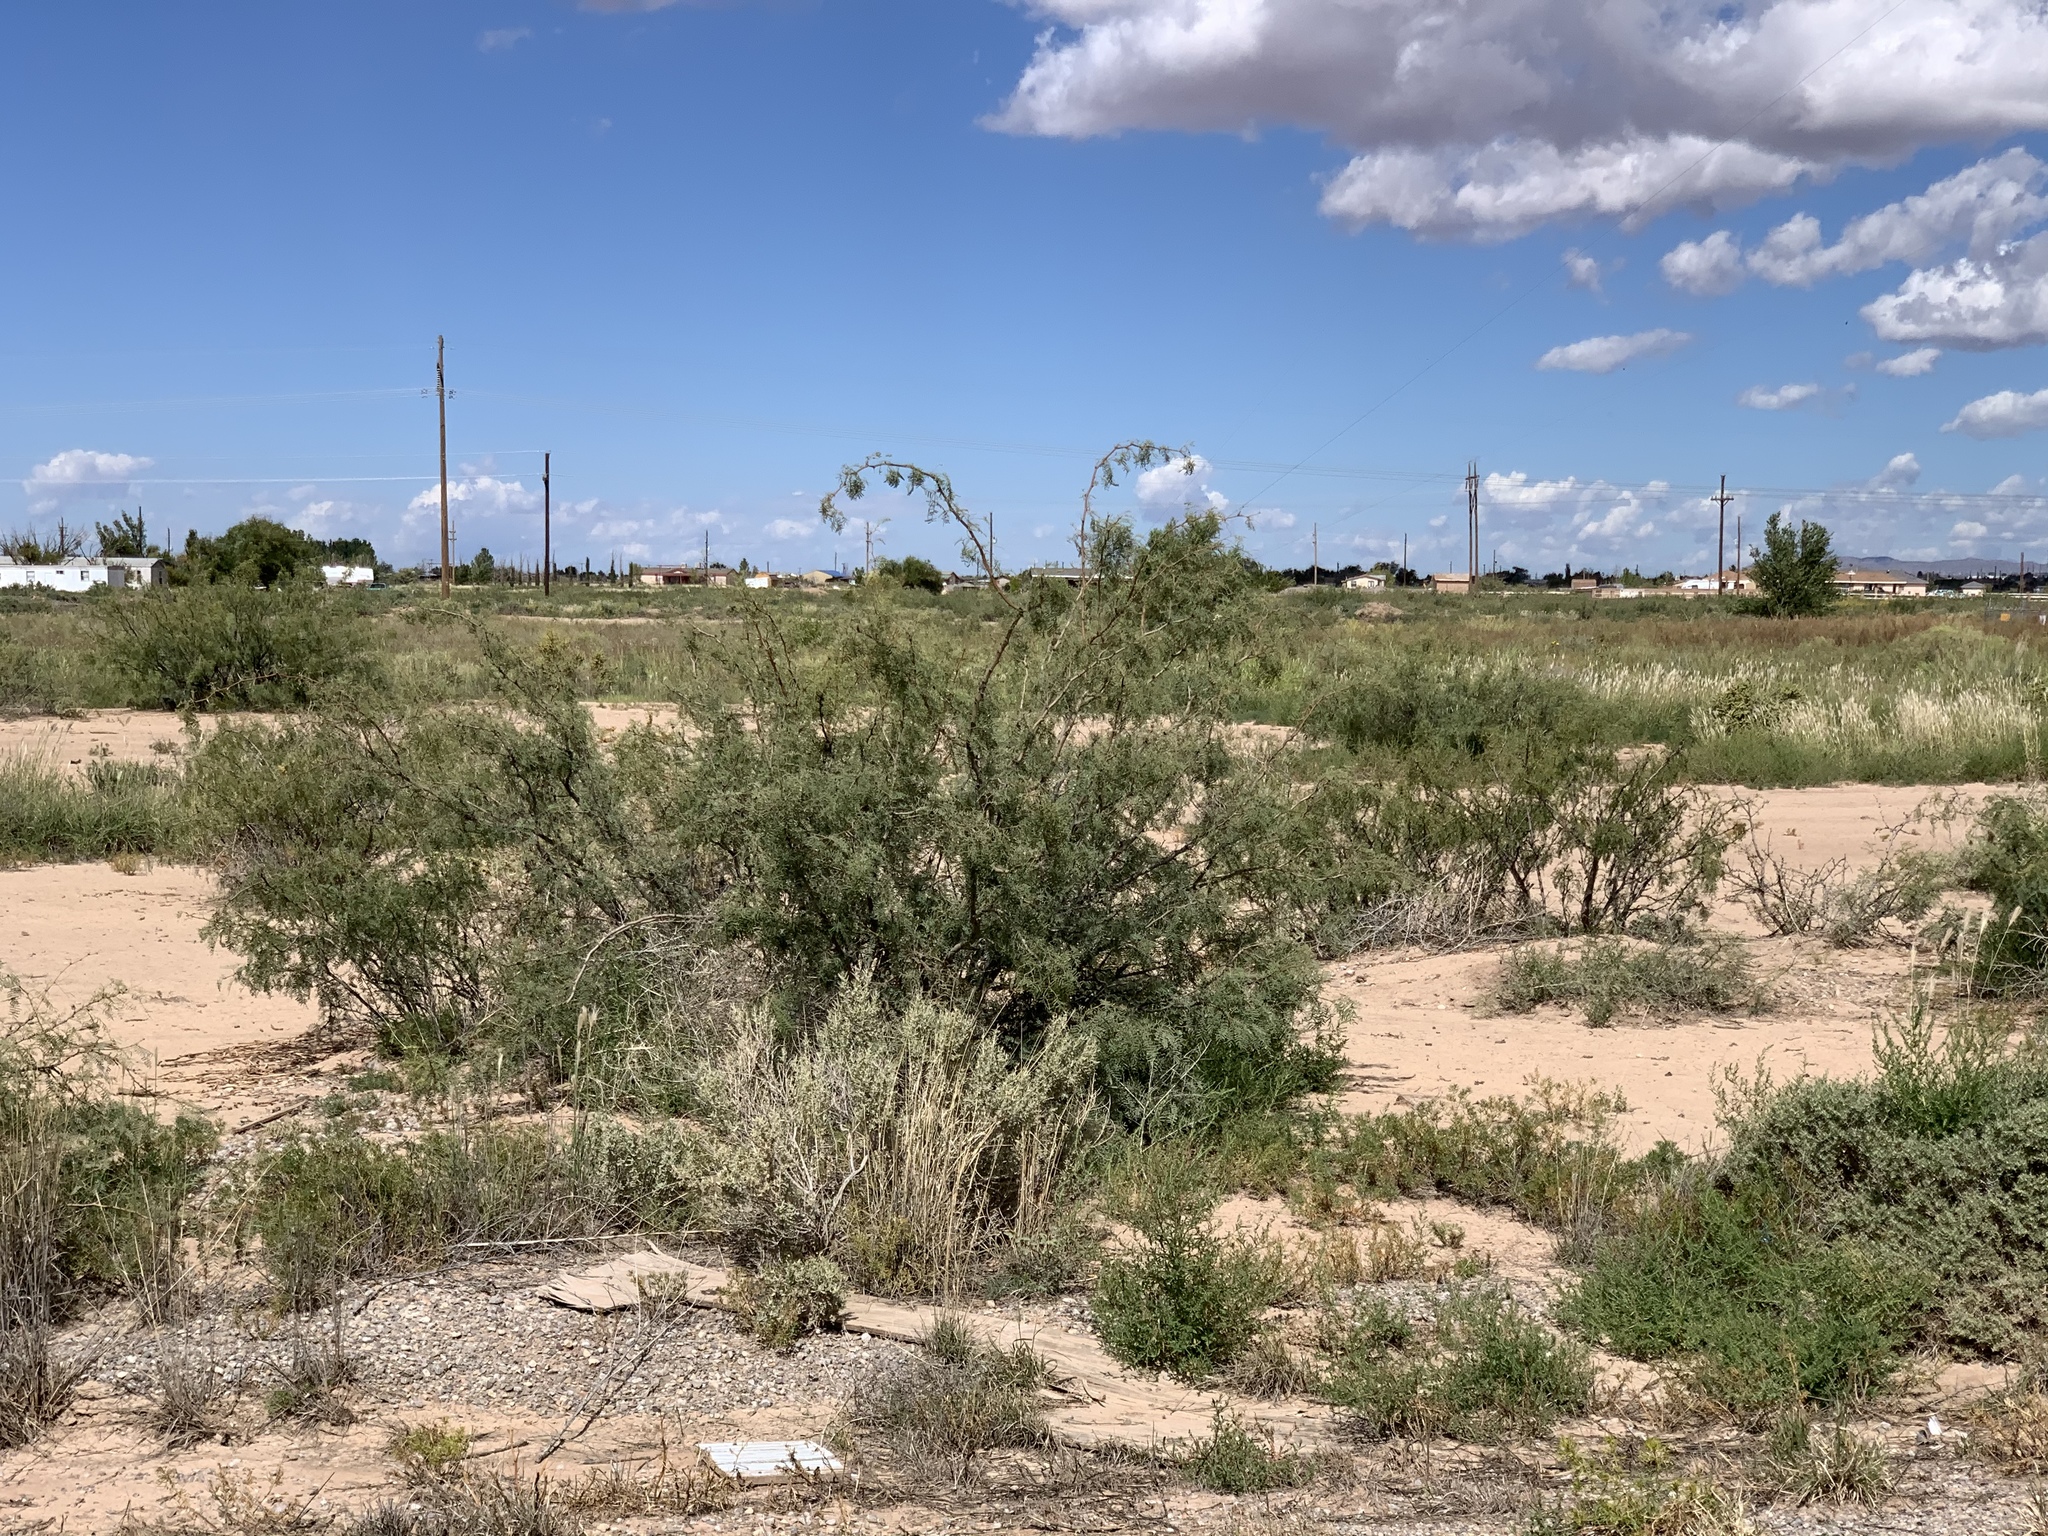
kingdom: Plantae
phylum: Tracheophyta
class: Magnoliopsida
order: Fabales
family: Fabaceae
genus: Prosopis
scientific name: Prosopis glandulosa
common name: Honey mesquite
